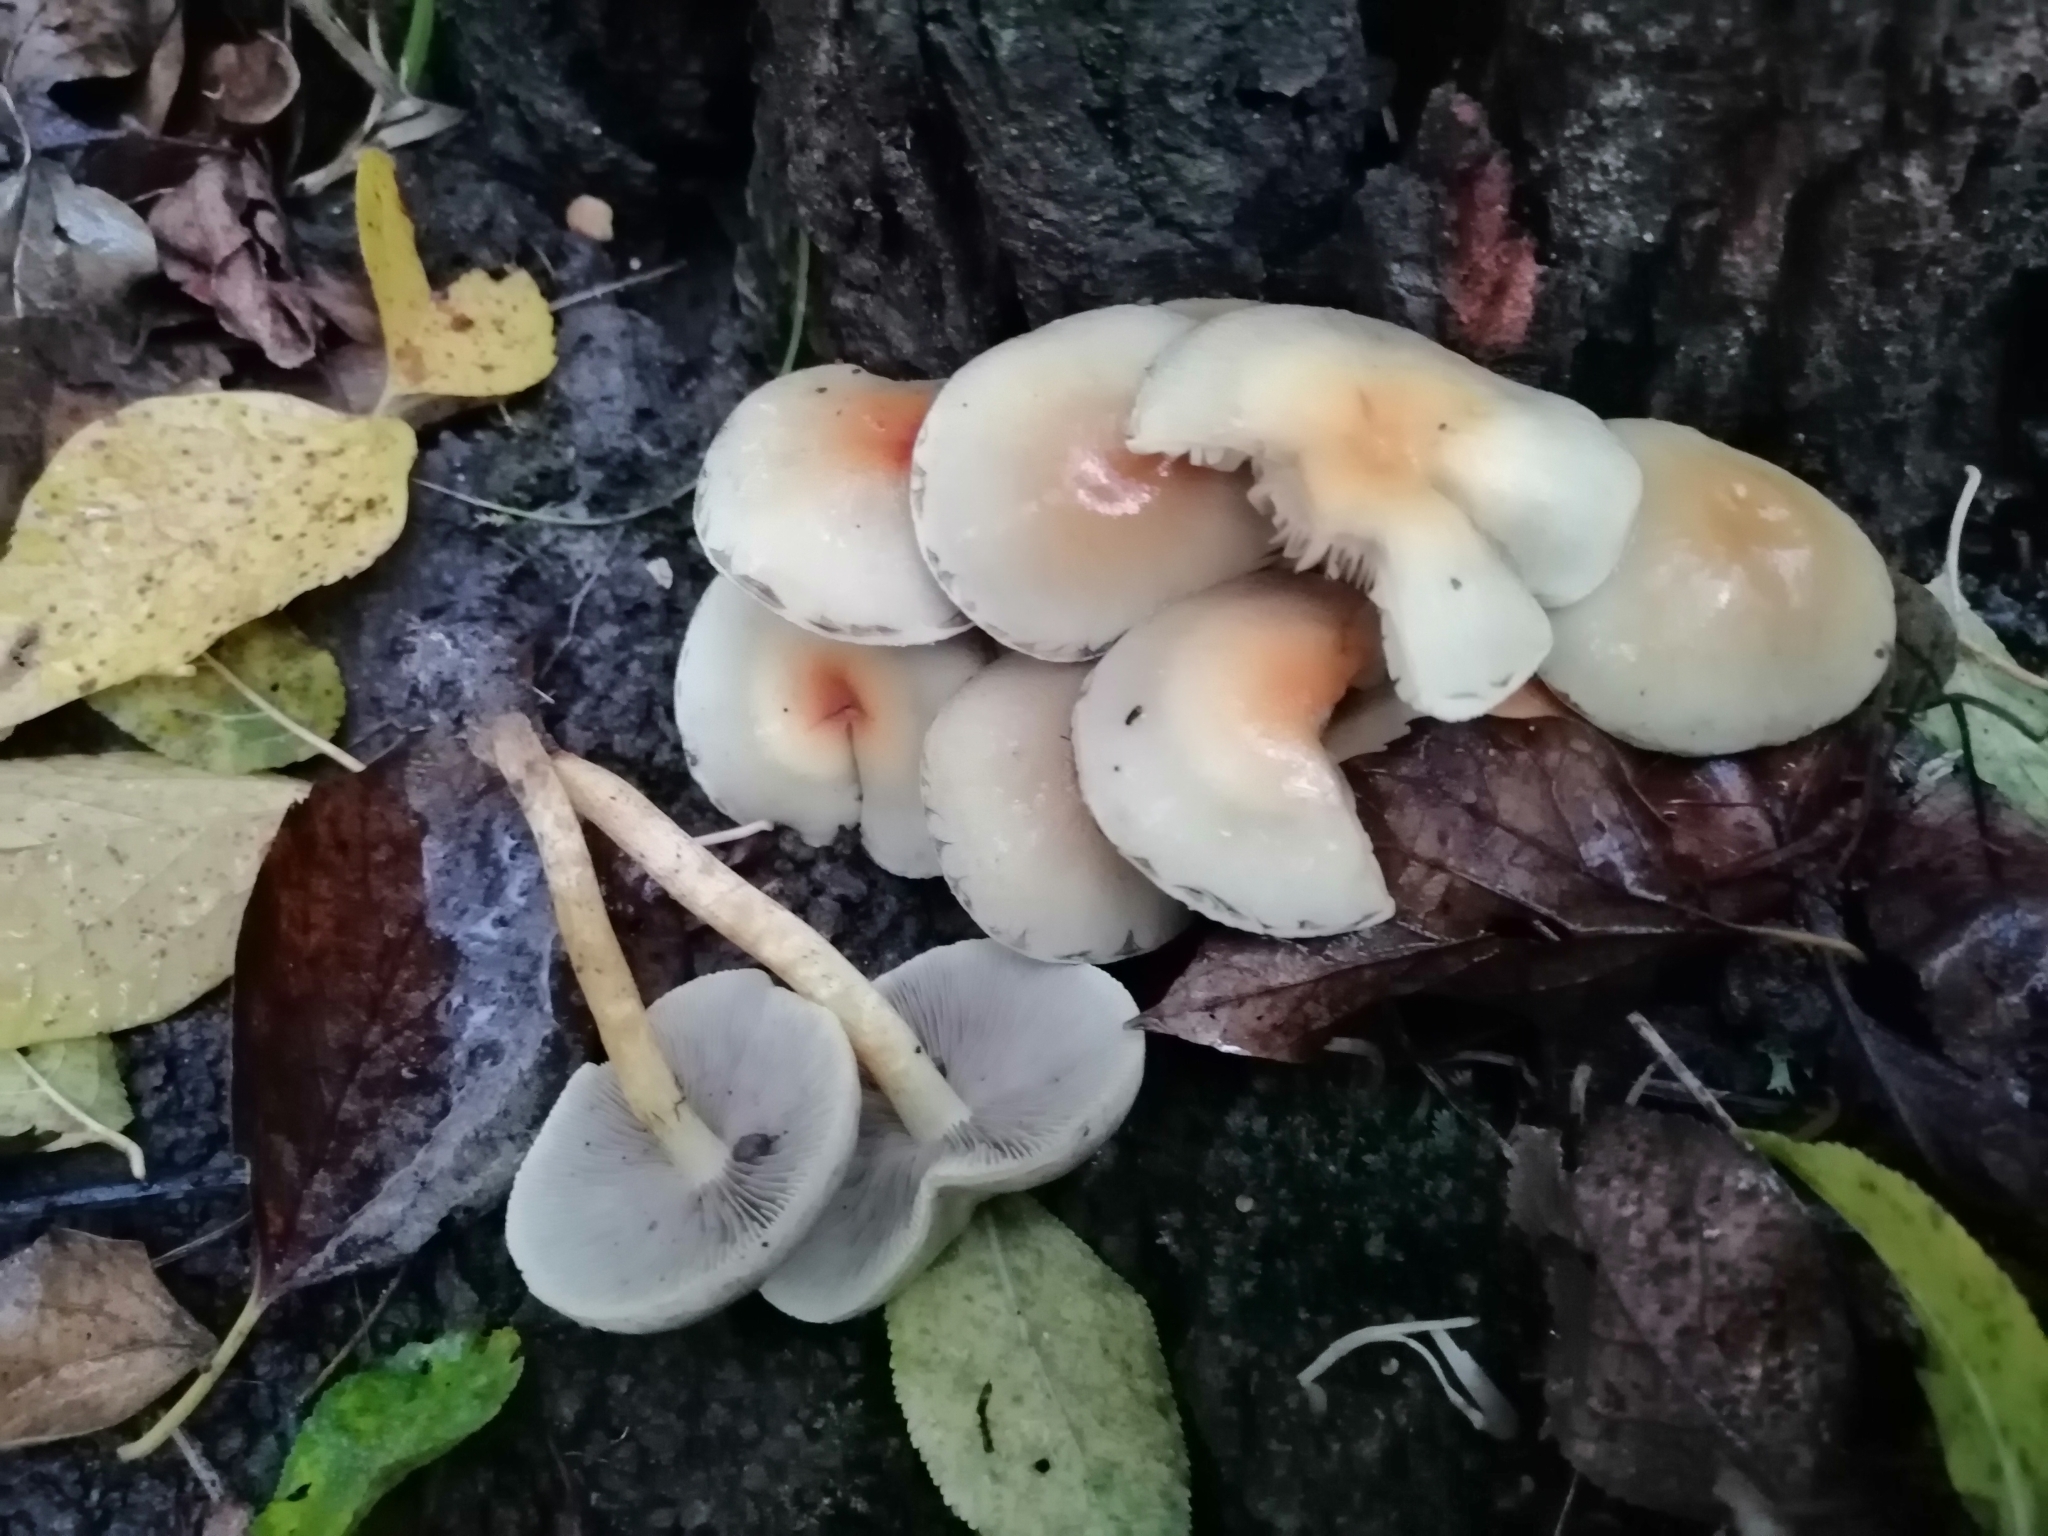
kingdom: Fungi
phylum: Basidiomycota
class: Agaricomycetes
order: Agaricales
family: Strophariaceae
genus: Hypholoma
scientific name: Hypholoma fasciculare
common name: Sulphur tuft
